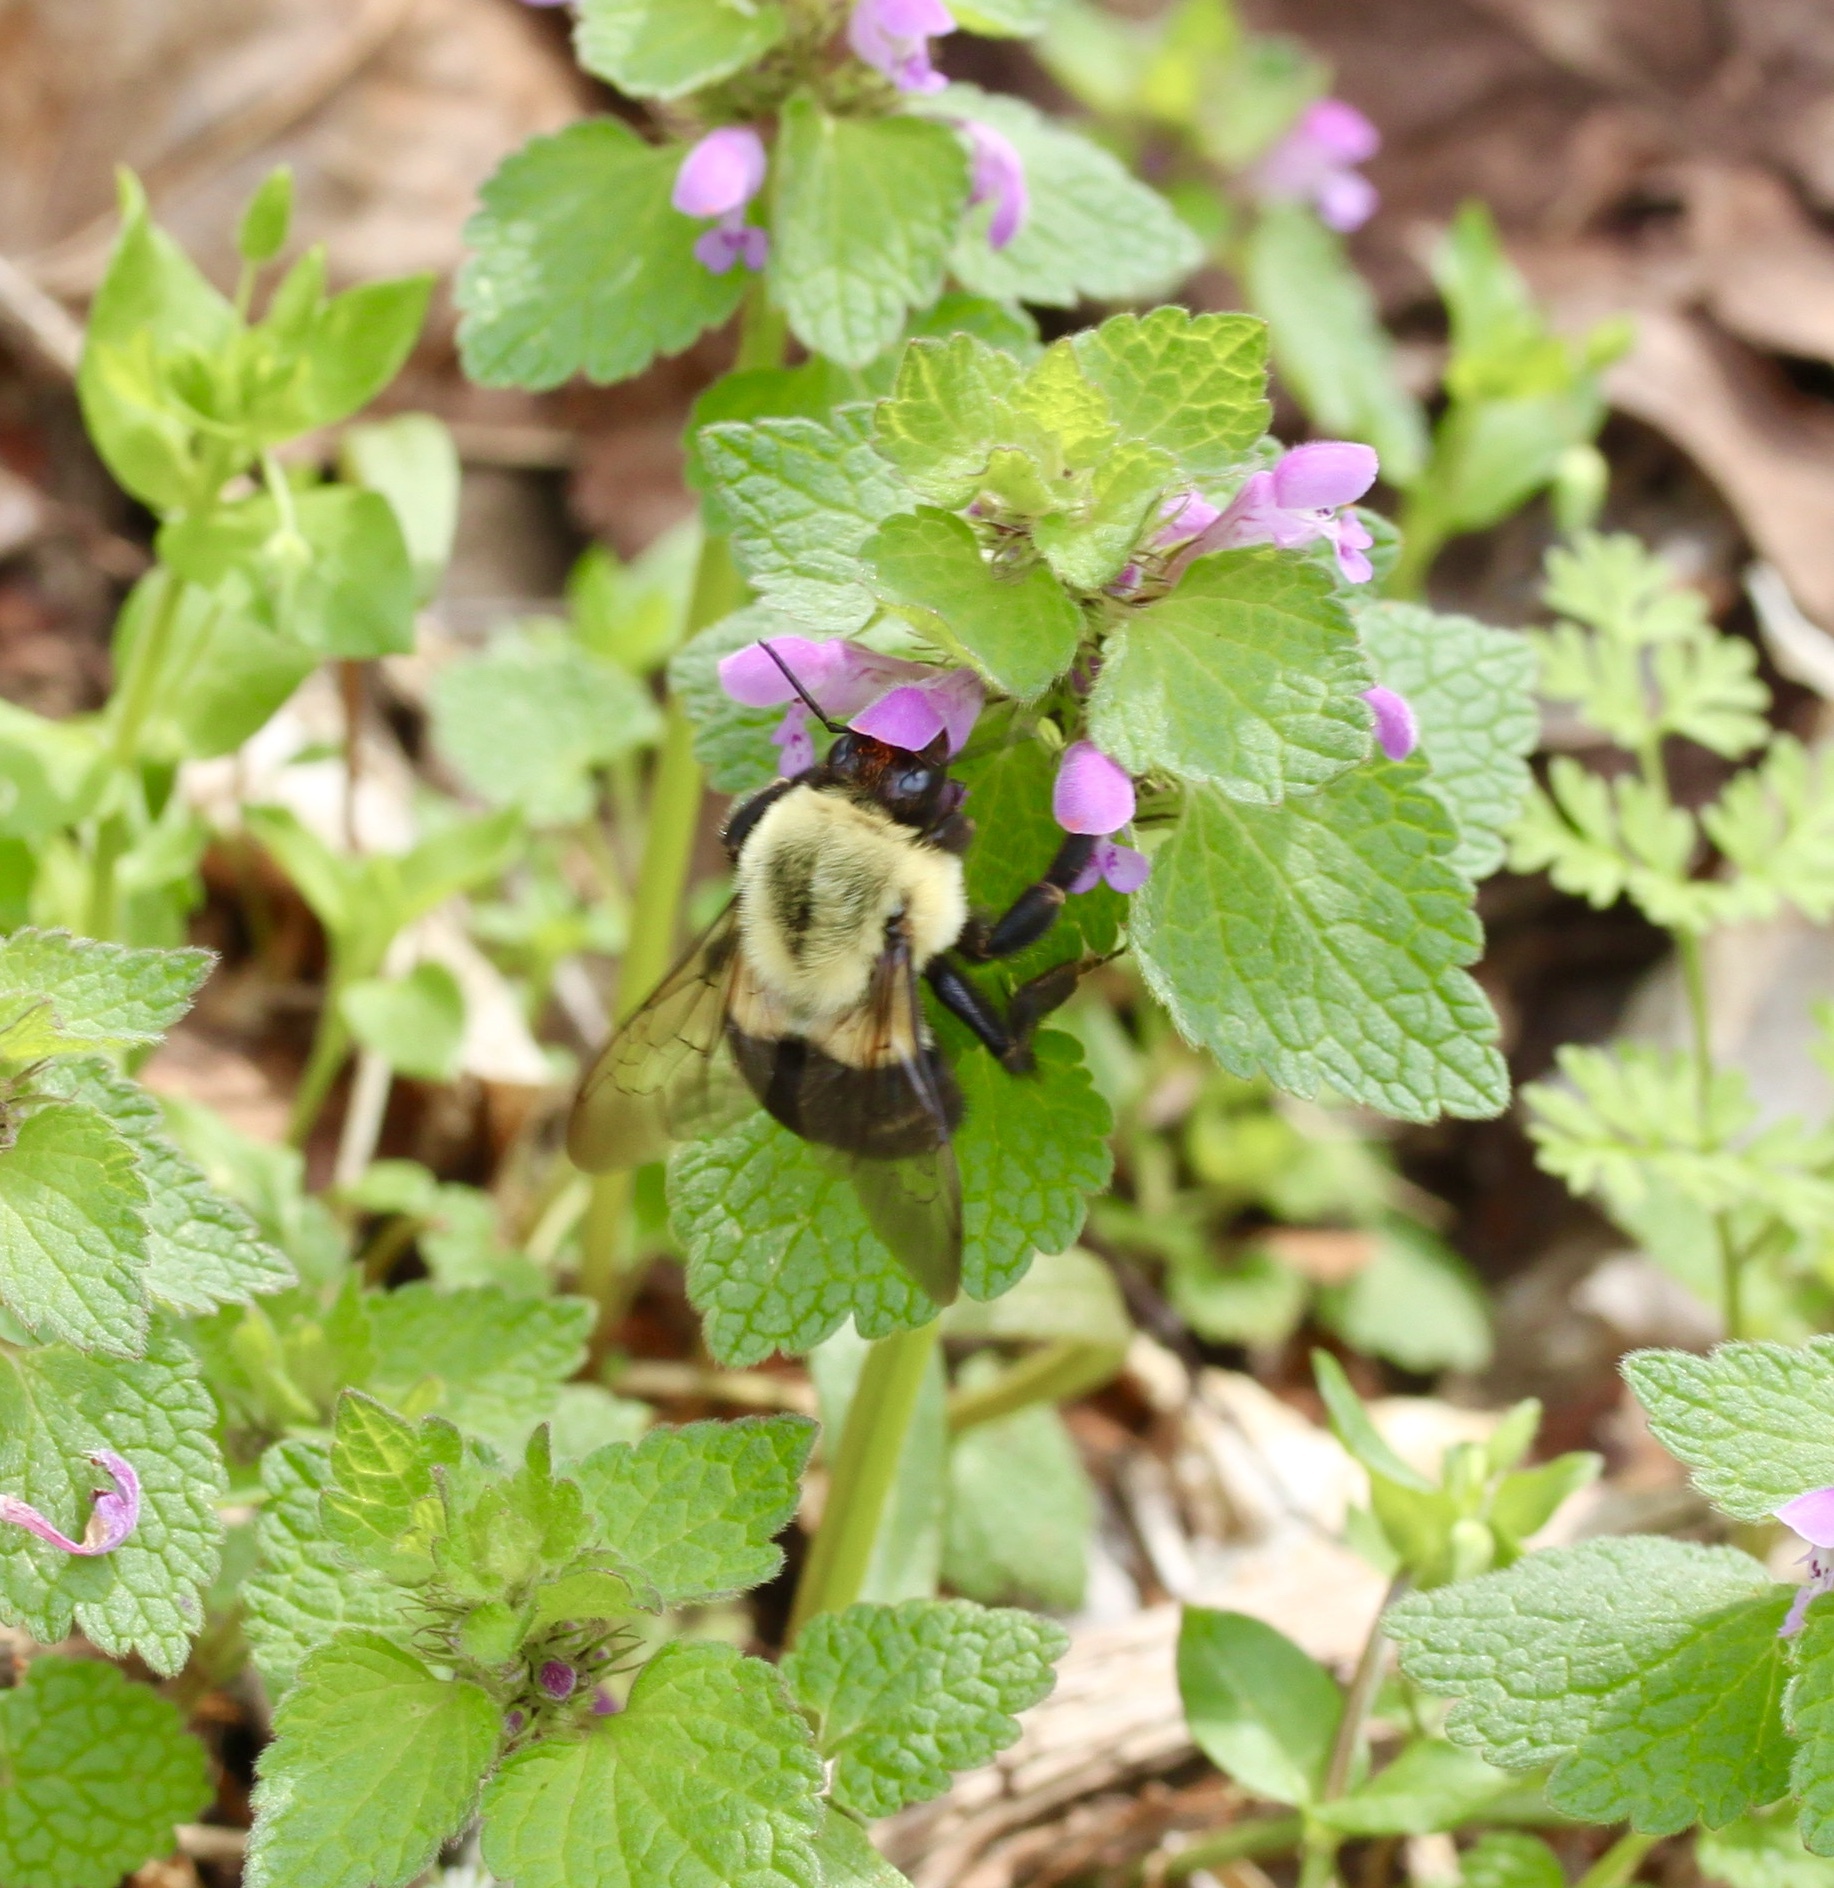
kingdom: Animalia
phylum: Arthropoda
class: Insecta
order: Hymenoptera
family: Apidae
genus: Bombus
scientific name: Bombus impatiens
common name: Common eastern bumble bee
